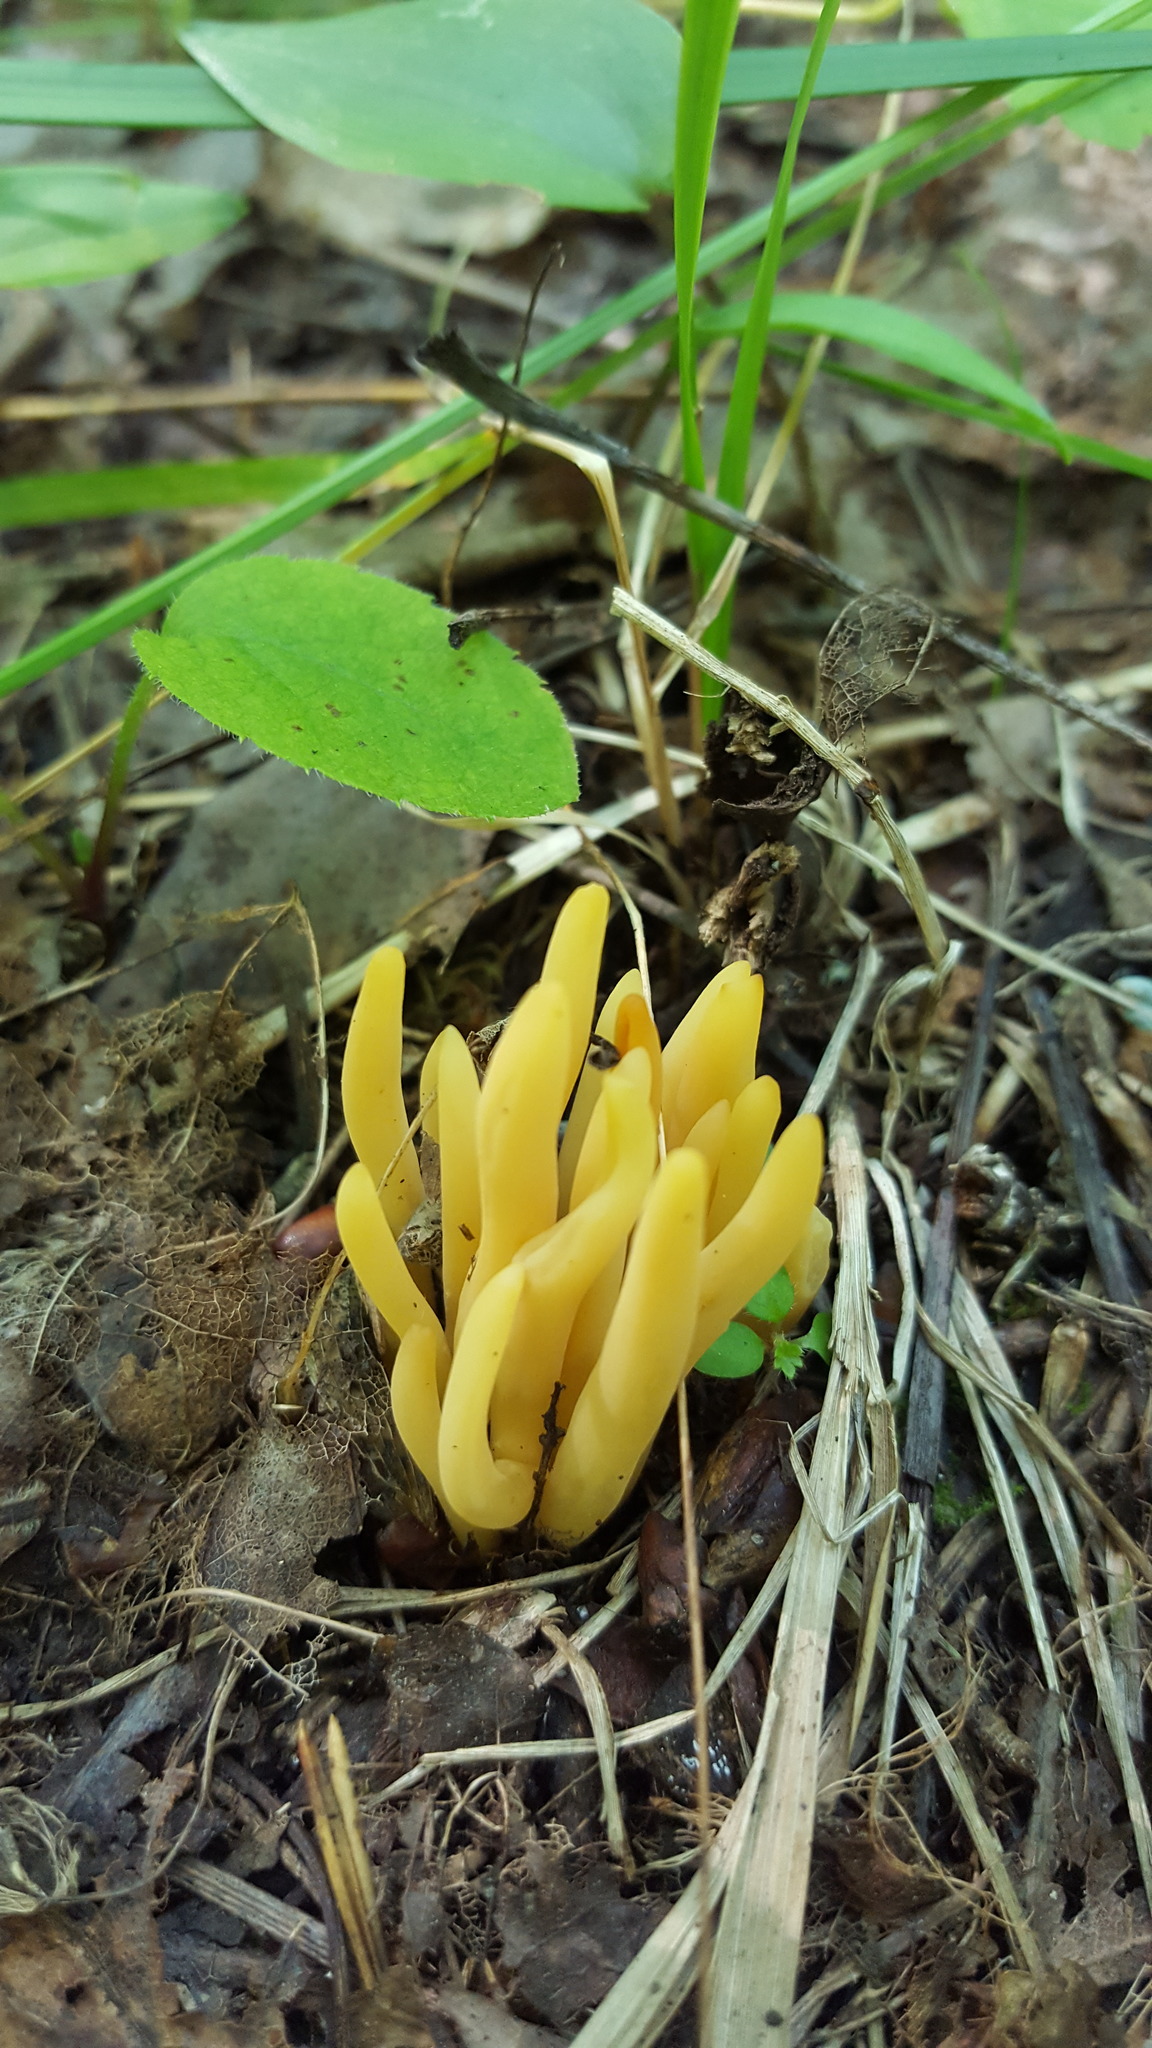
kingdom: Fungi
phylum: Basidiomycota
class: Agaricomycetes
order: Agaricales
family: Clavariaceae
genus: Clavulinopsis
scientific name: Clavulinopsis fusiformis
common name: Golden spindles
